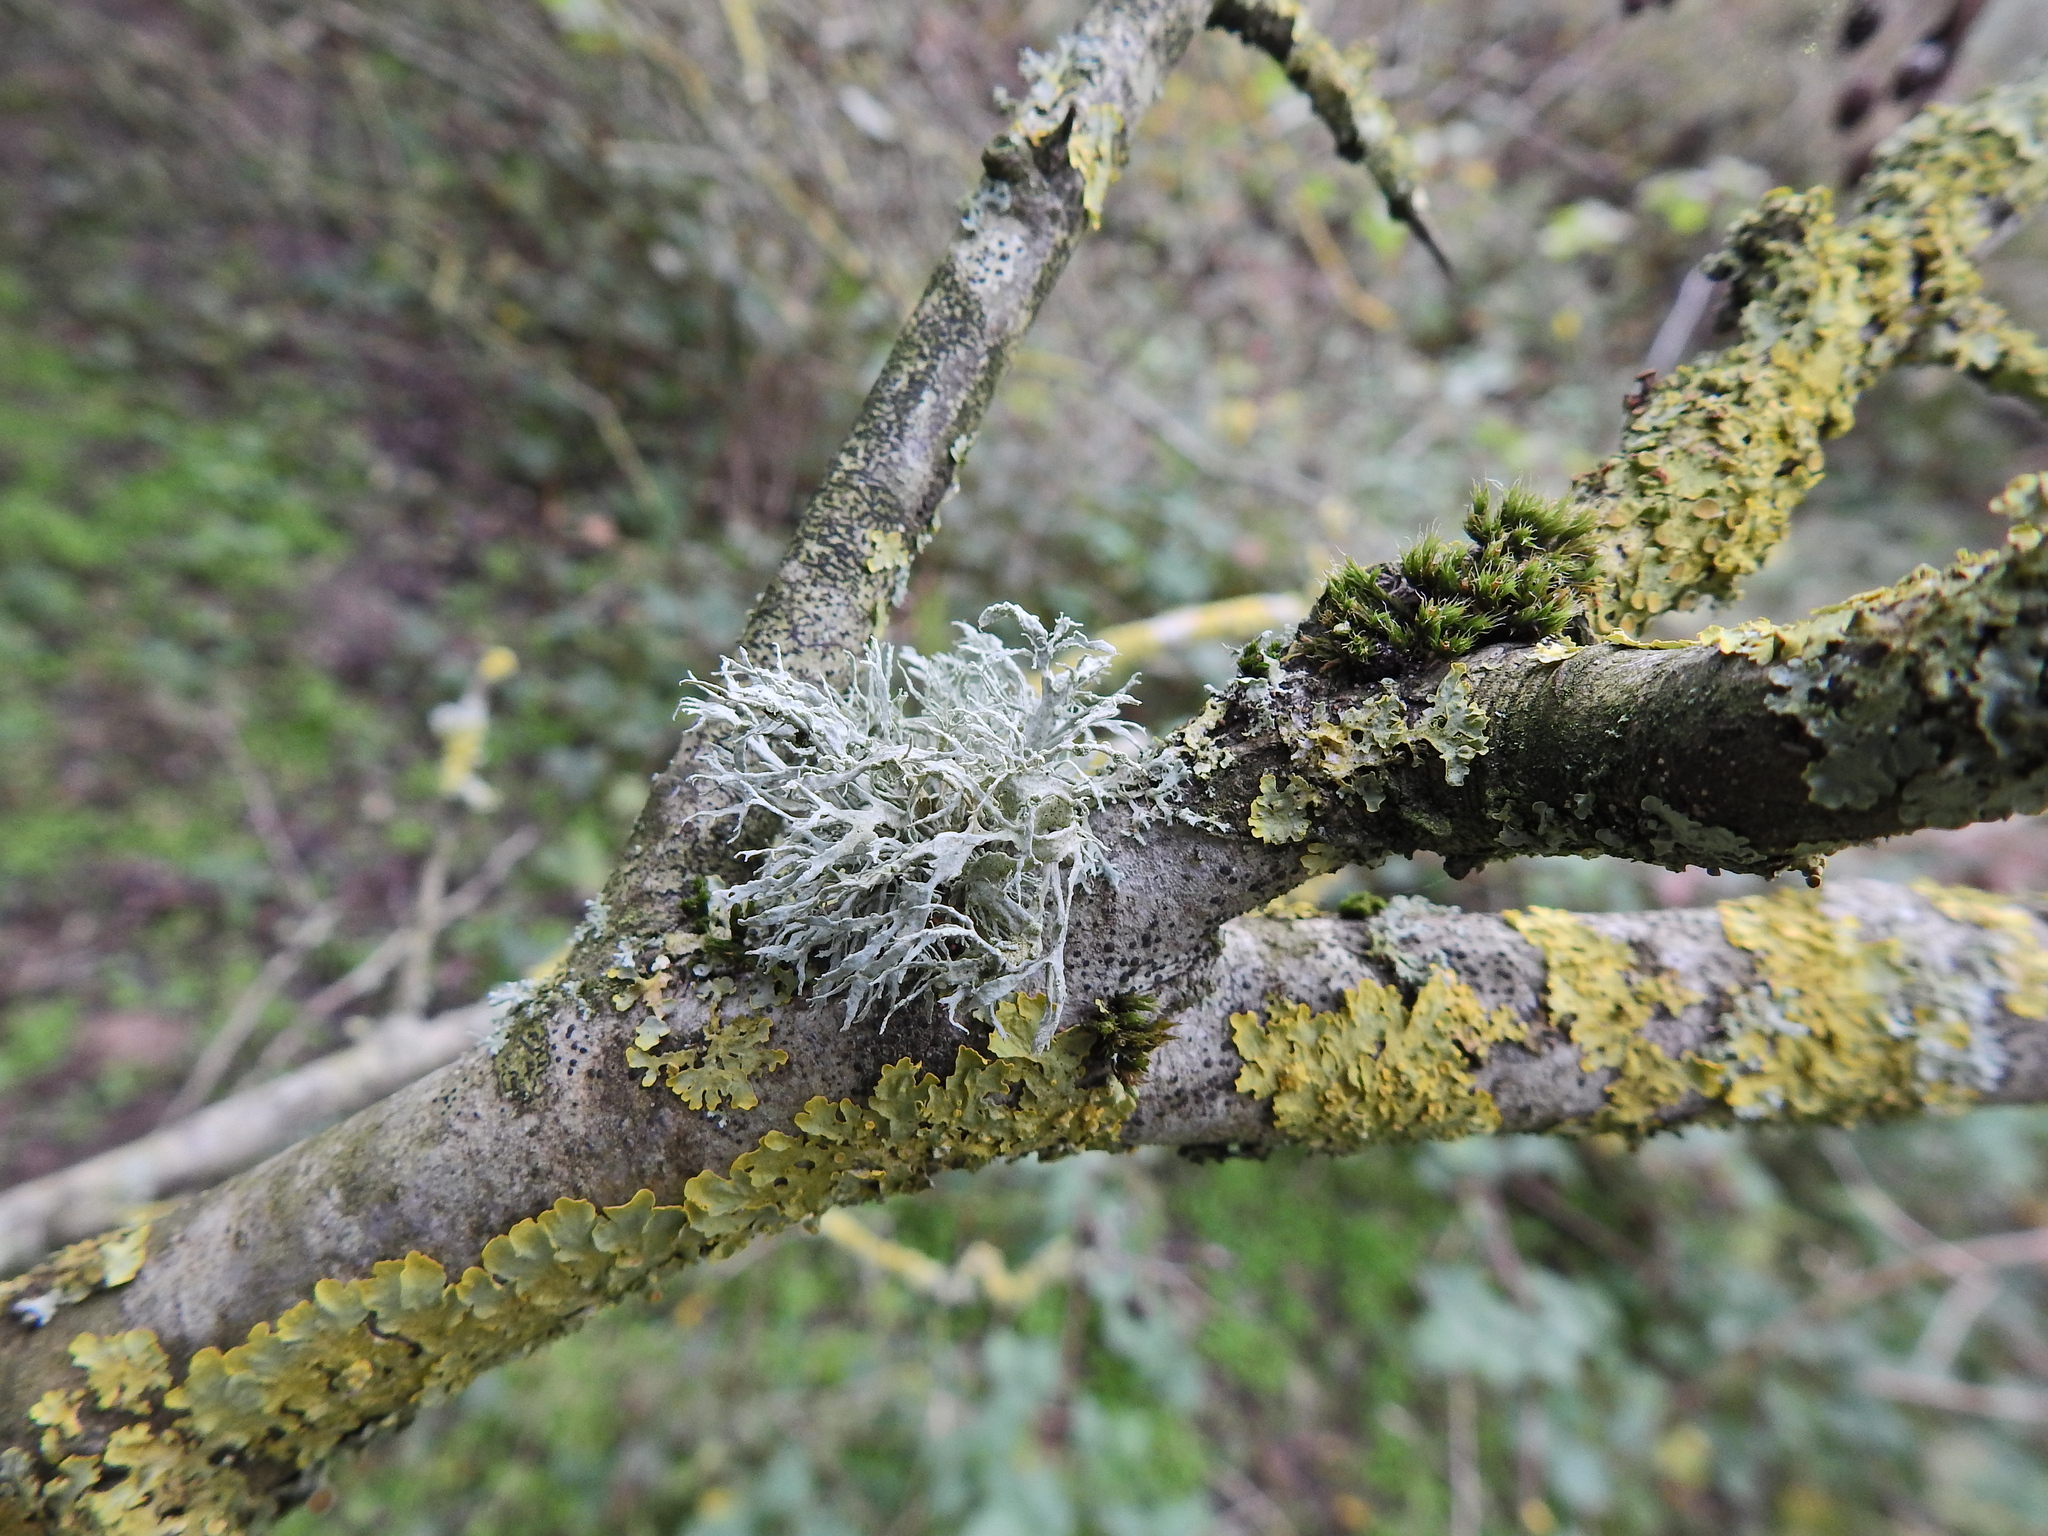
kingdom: Fungi
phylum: Ascomycota
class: Lecanoromycetes
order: Lecanorales
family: Ramalinaceae
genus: Ramalina
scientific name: Ramalina farinacea
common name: Farinose cartilage lichen
